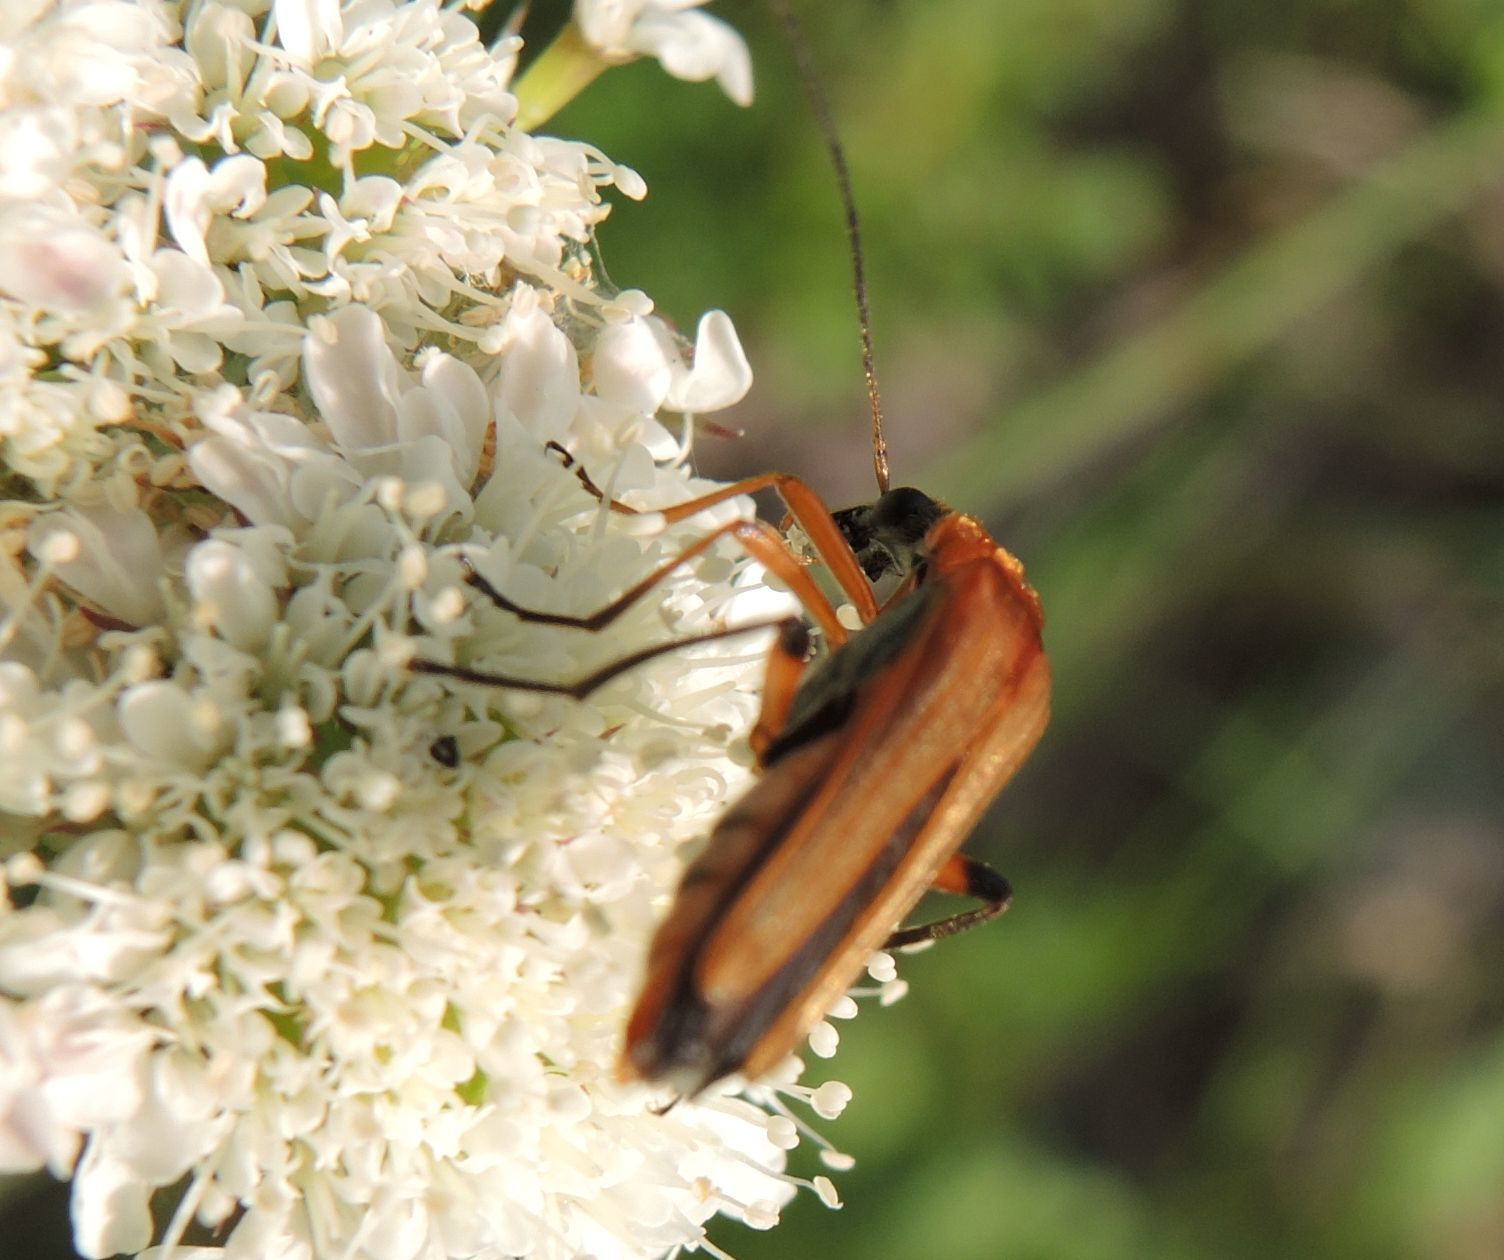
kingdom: Animalia
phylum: Arthropoda
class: Insecta
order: Coleoptera
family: Oedemeridae
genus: Oedemera
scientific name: Oedemera podagrariae
